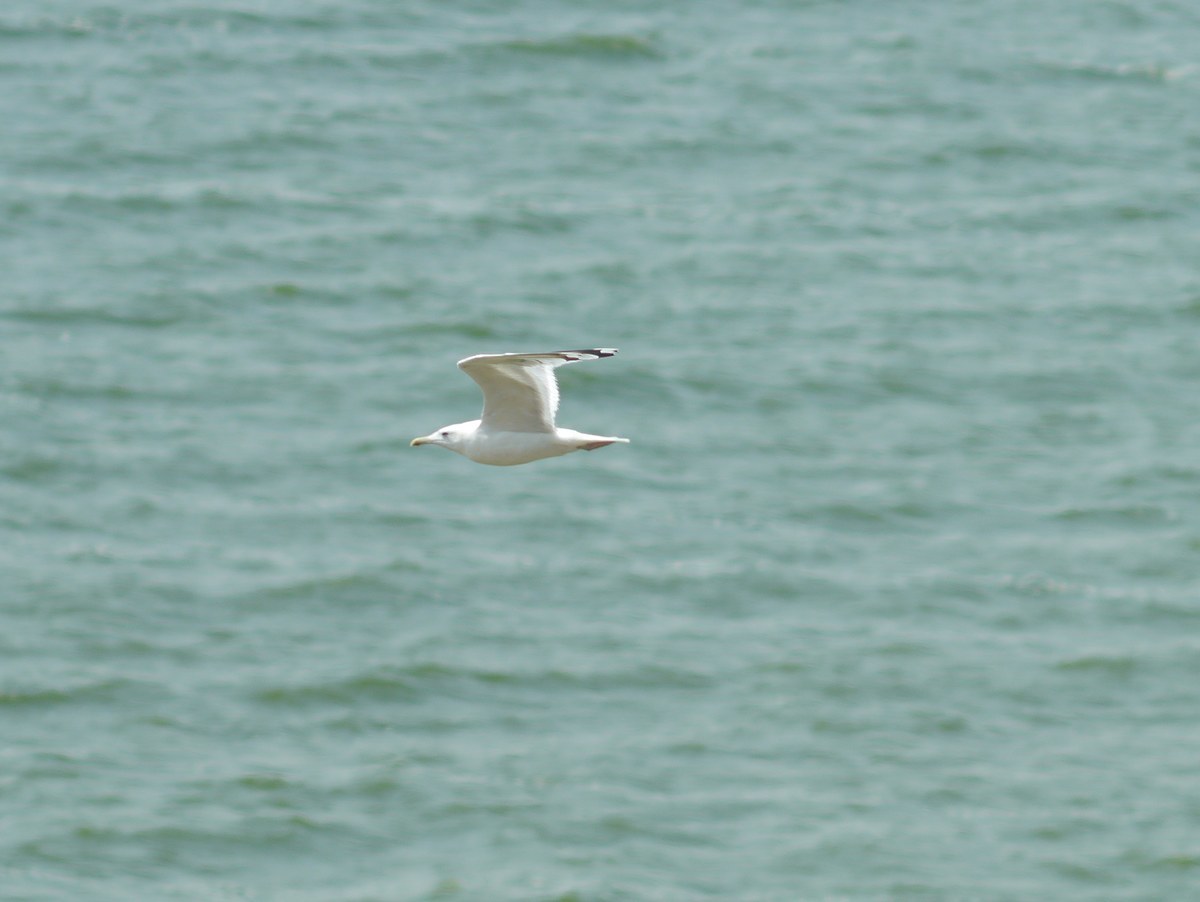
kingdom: Animalia
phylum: Chordata
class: Aves
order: Charadriiformes
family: Laridae
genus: Larus
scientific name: Larus cachinnans
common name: Caspian gull
